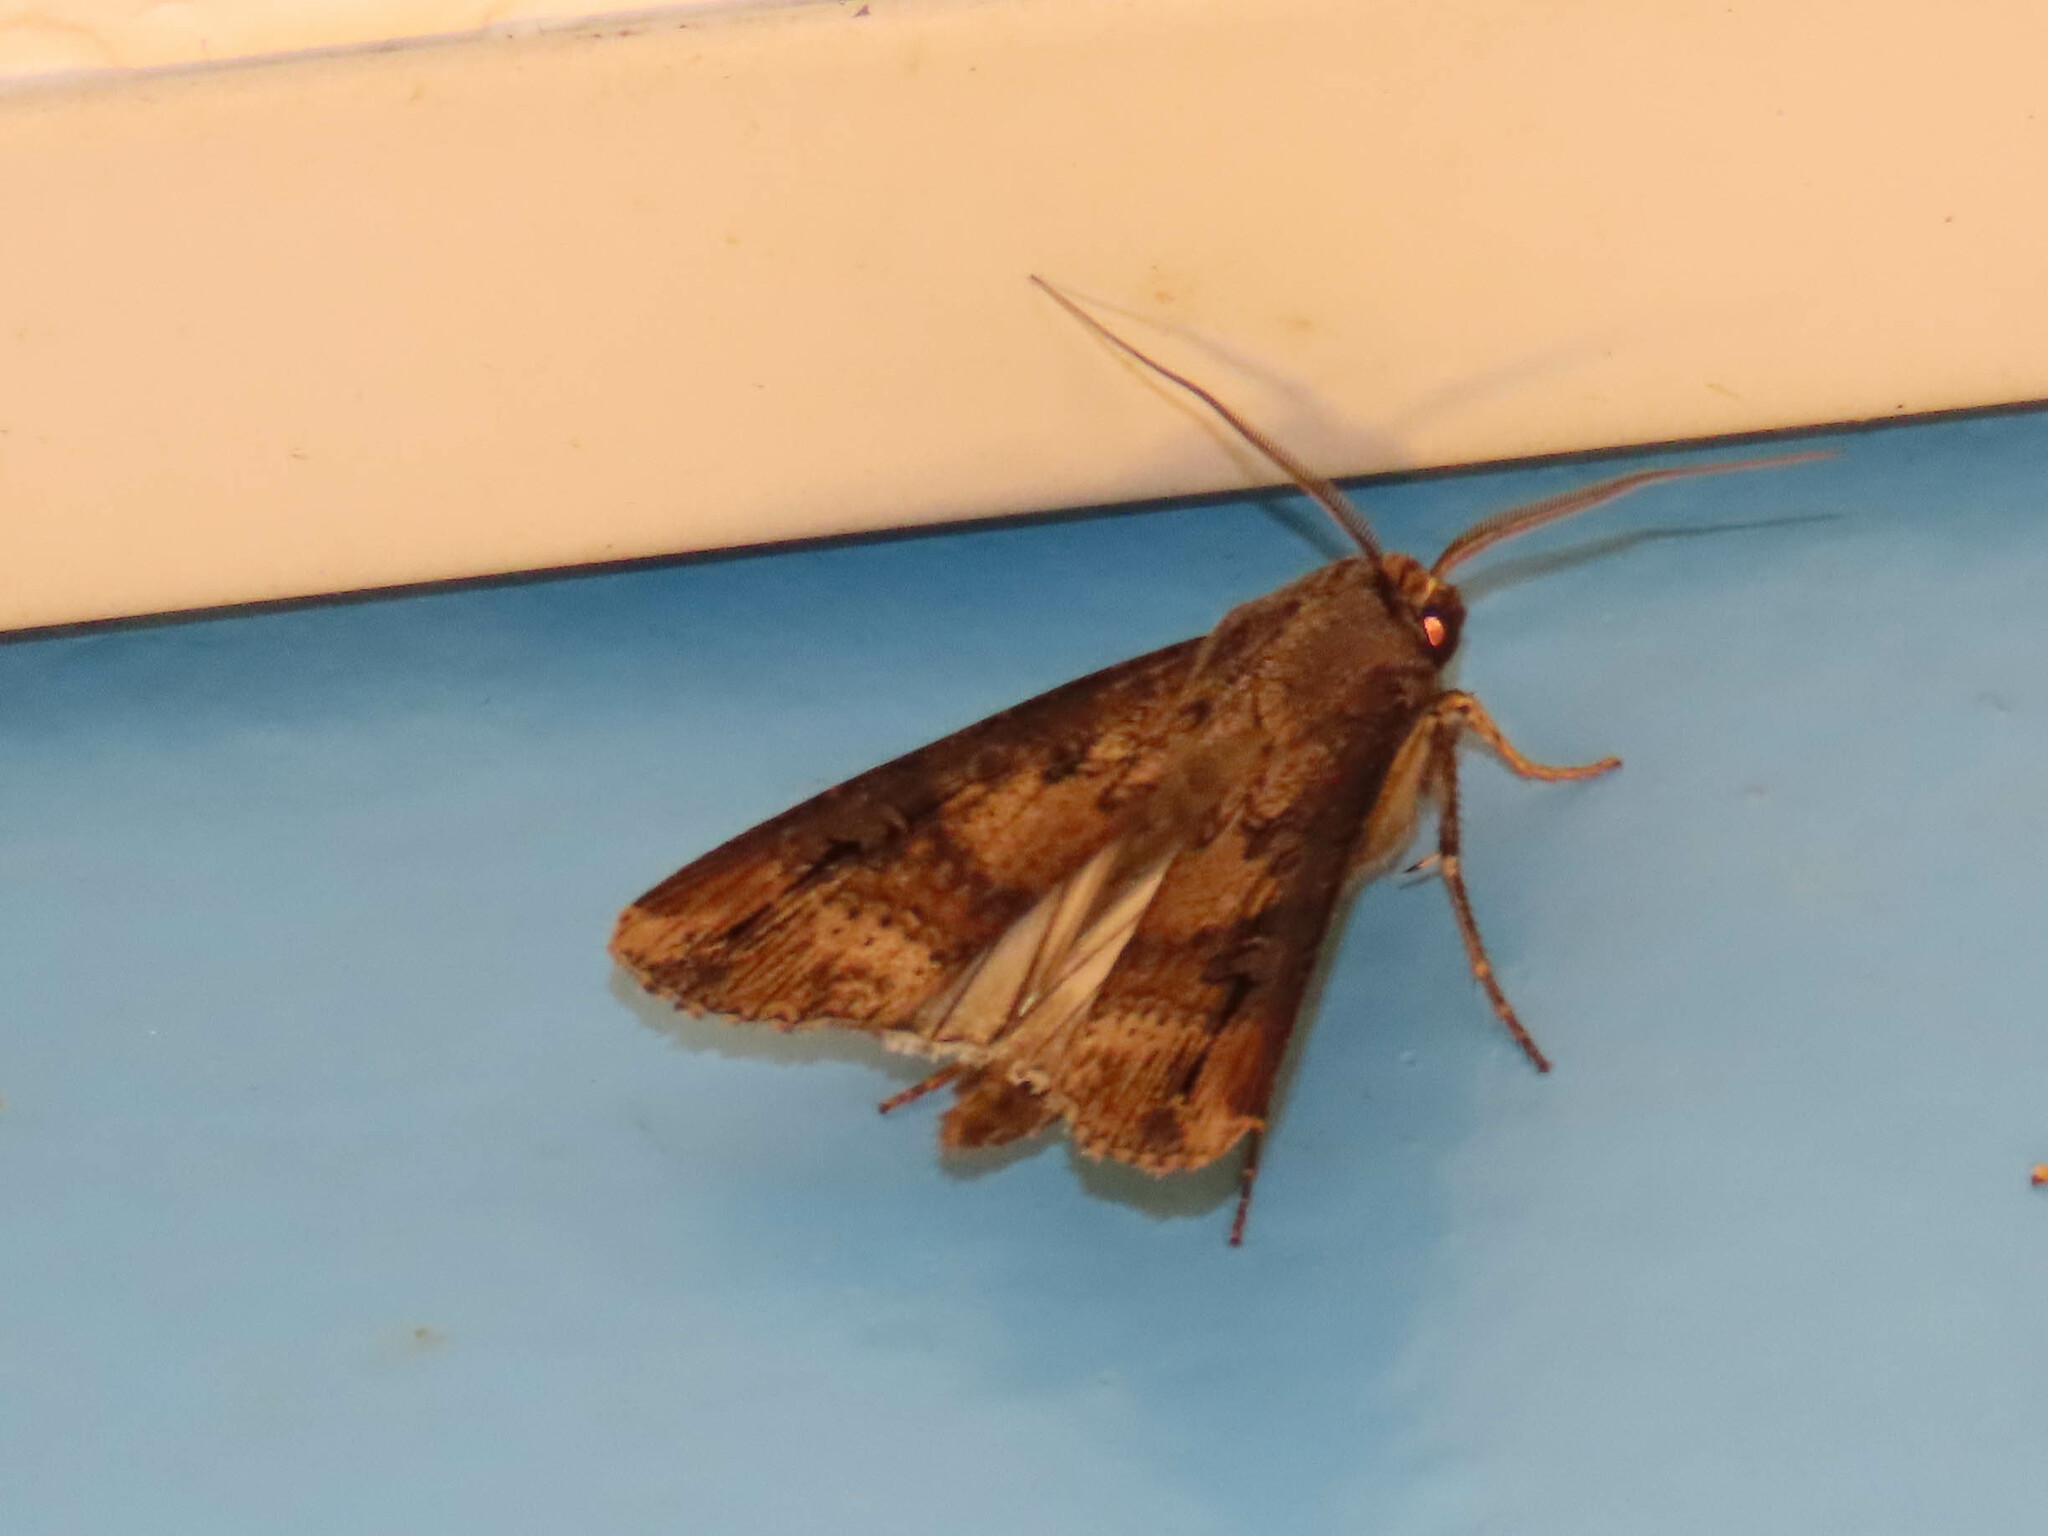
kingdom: Animalia
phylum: Arthropoda
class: Insecta
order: Lepidoptera
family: Noctuidae
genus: Agrotis
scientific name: Agrotis ipsilon
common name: Dark sword-grass
